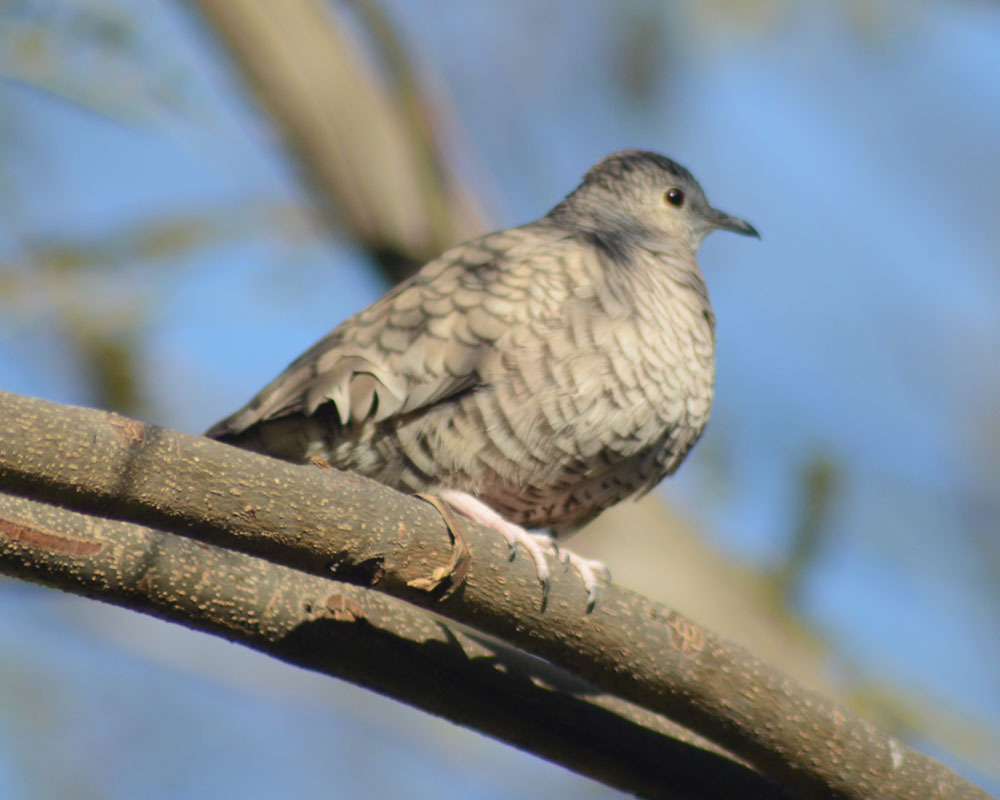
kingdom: Animalia
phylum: Chordata
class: Aves
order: Columbiformes
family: Columbidae
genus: Columbina
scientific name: Columbina inca
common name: Inca dove
